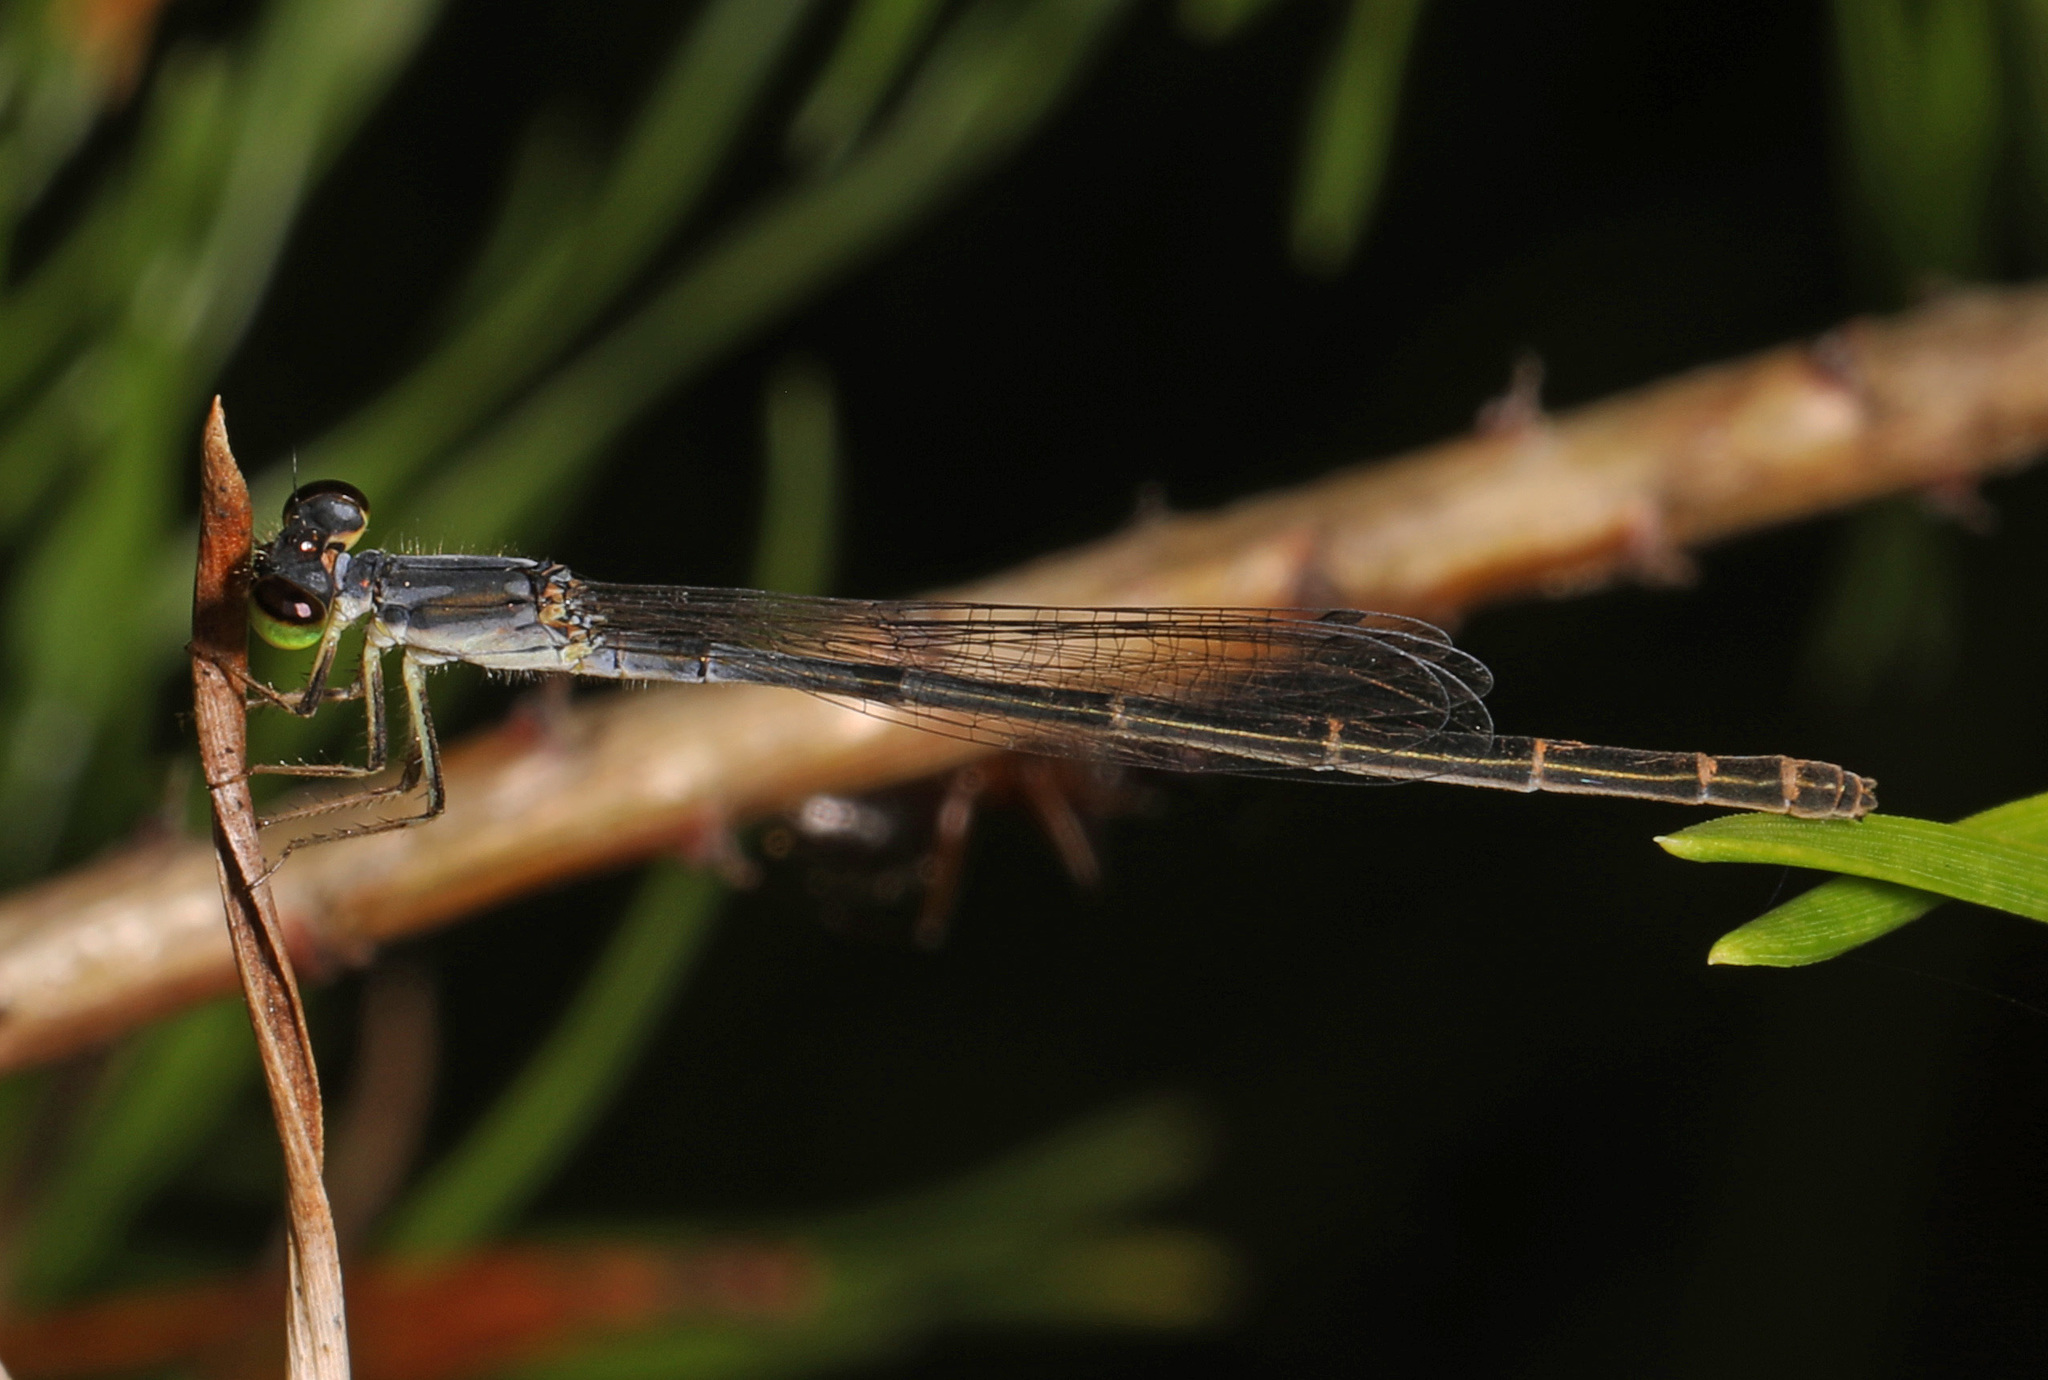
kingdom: Animalia
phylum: Arthropoda
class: Insecta
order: Odonata
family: Coenagrionidae
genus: Ischnura
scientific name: Ischnura posita
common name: Fragile forktail
